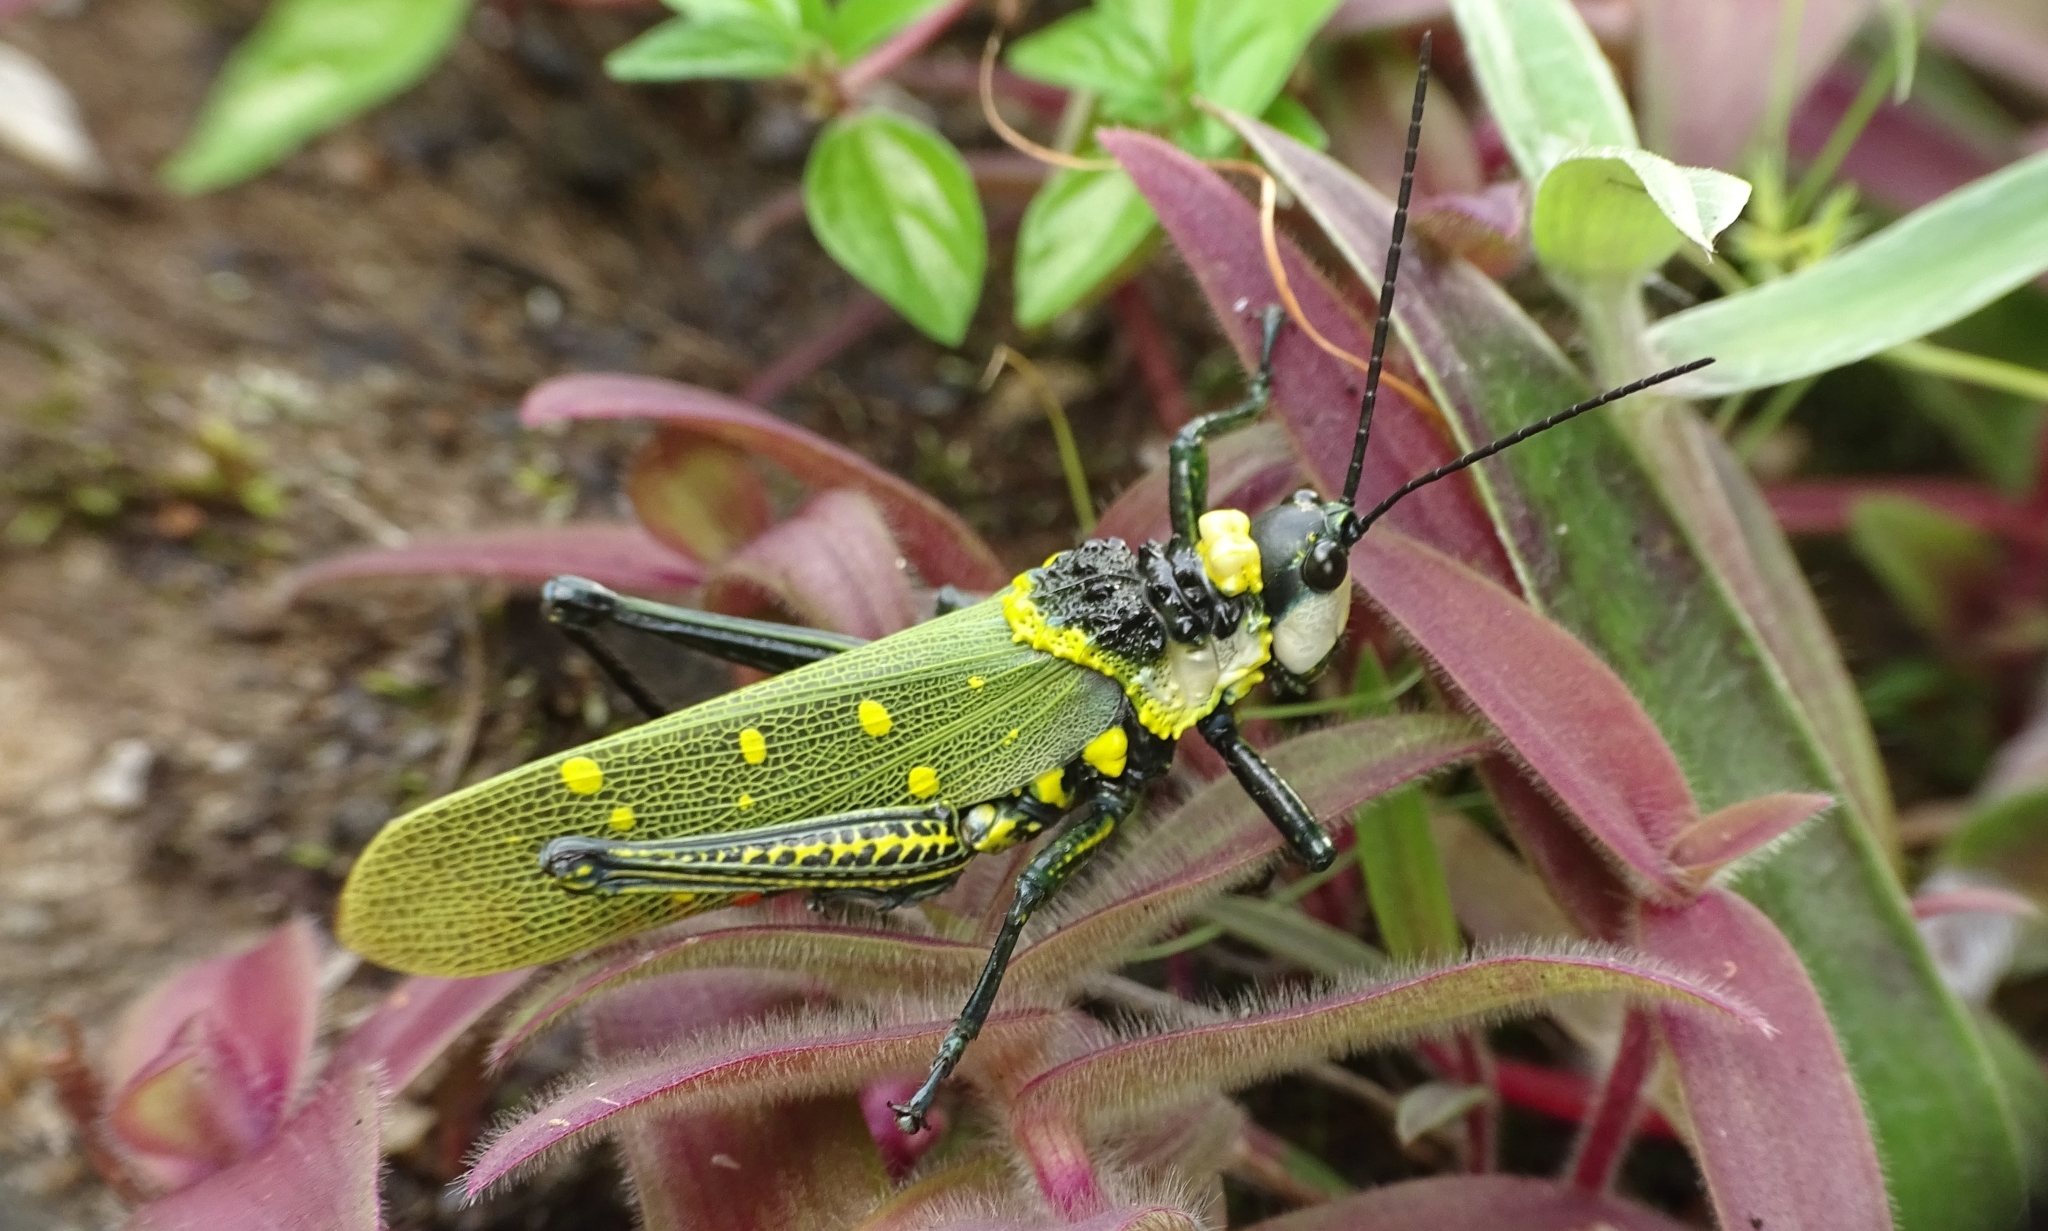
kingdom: Animalia
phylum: Arthropoda
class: Insecta
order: Orthoptera
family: Pyrgomorphidae
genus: Aularches
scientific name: Aularches miliaris
